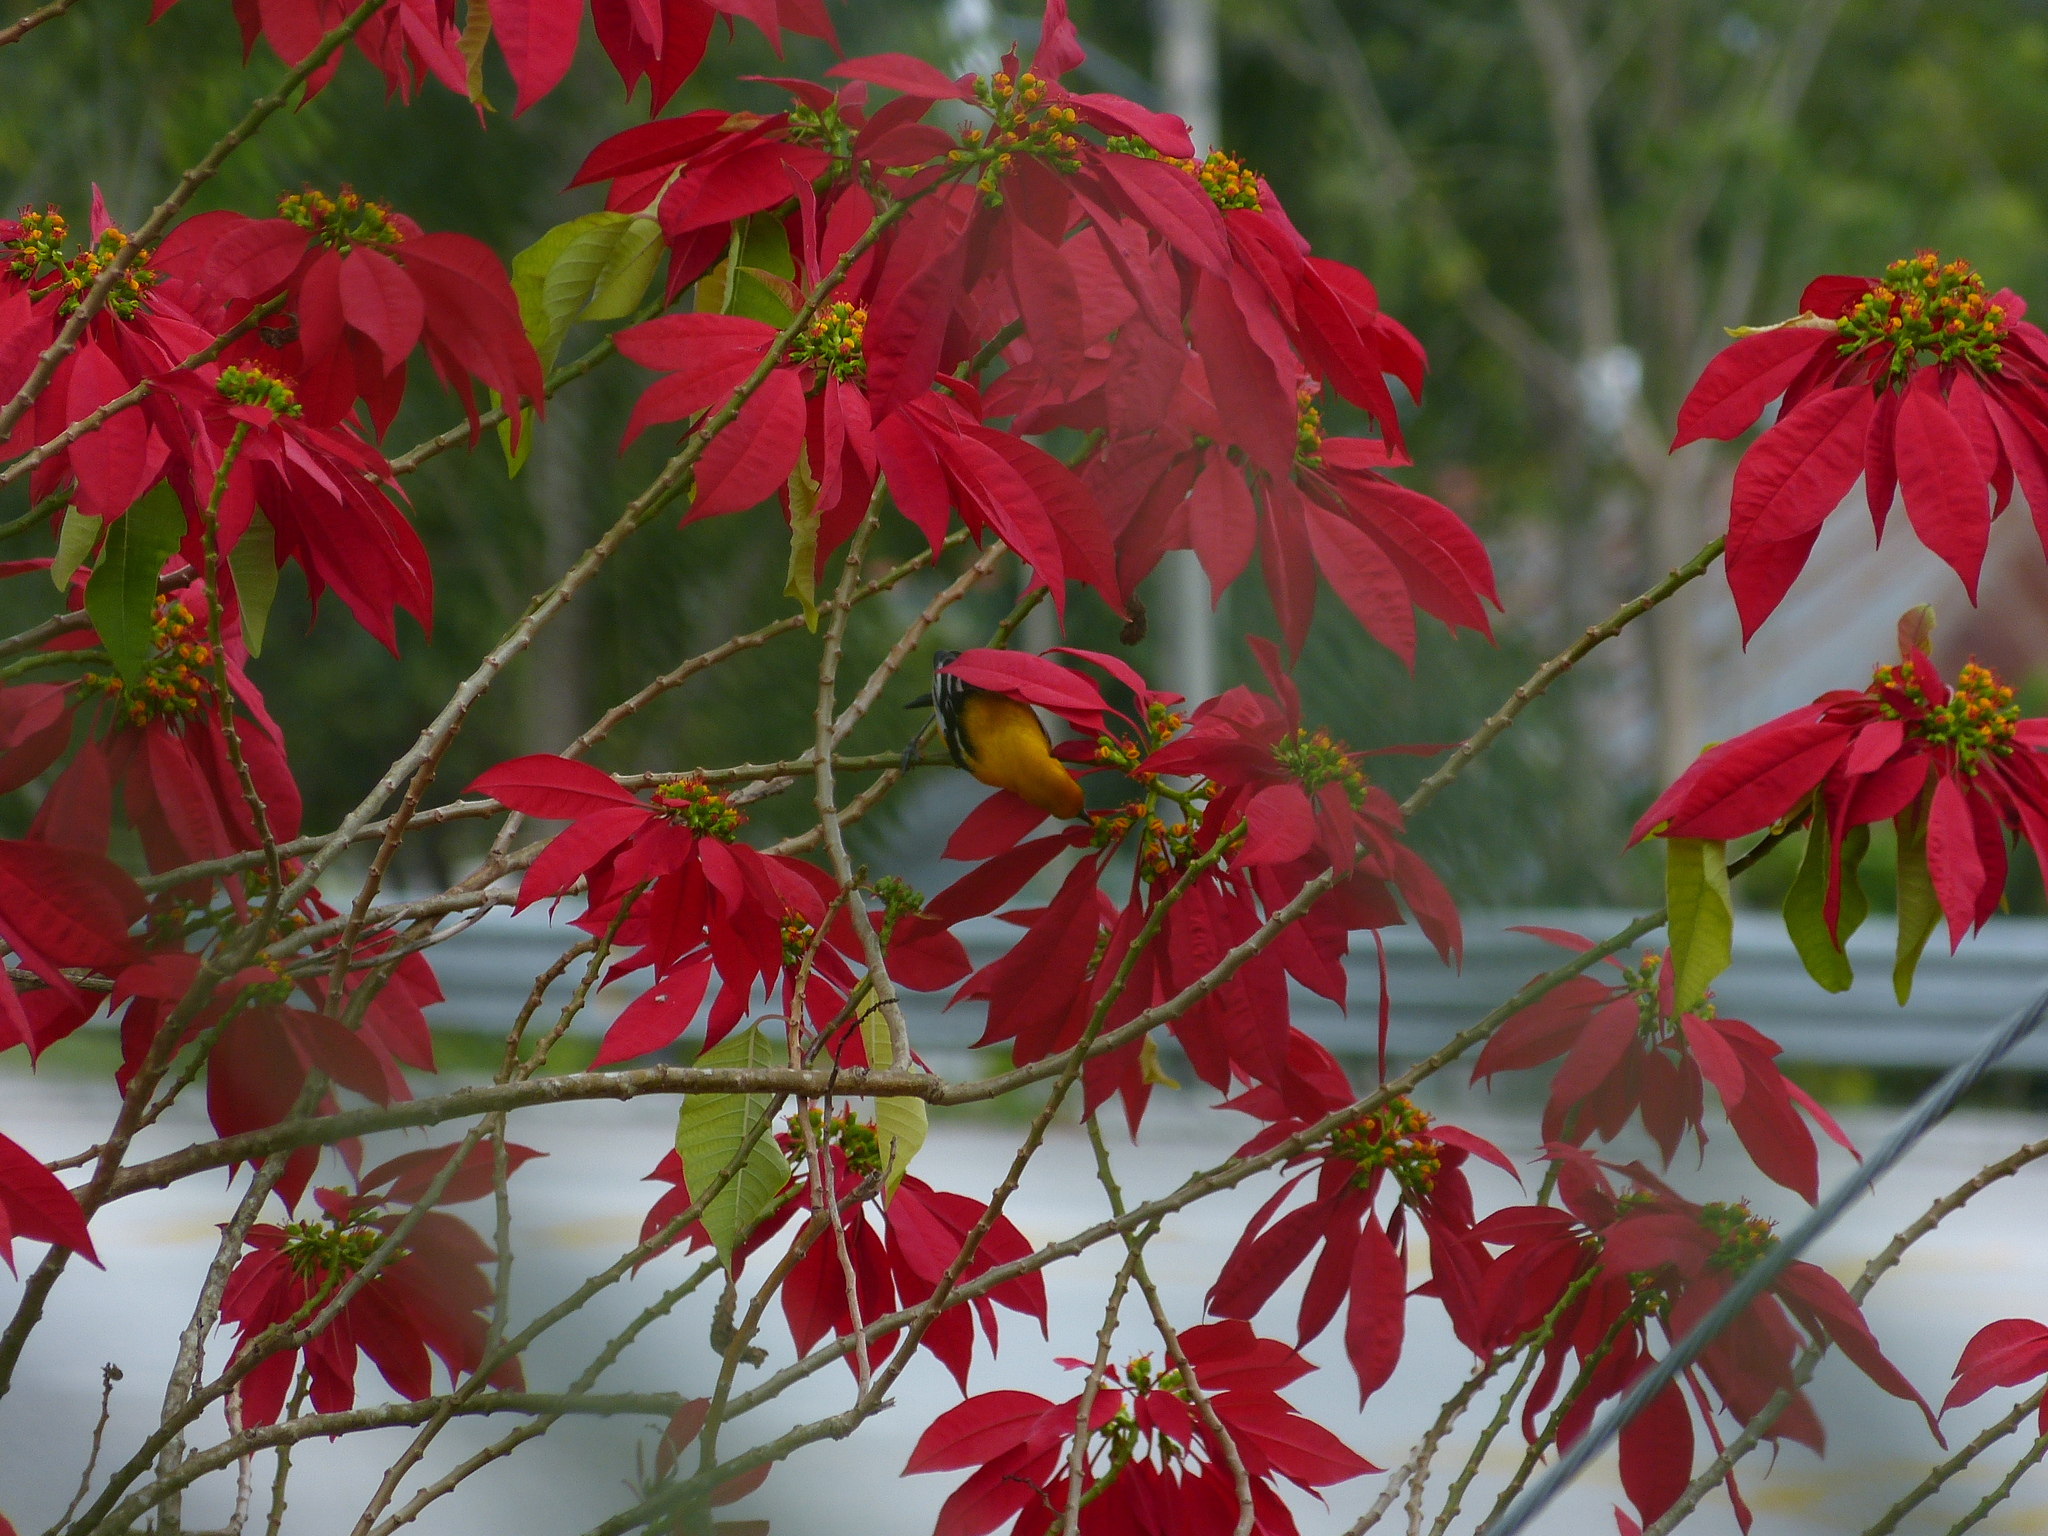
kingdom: Animalia
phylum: Chordata
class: Aves
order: Passeriformes
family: Icteridae
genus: Icterus
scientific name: Icterus auratus
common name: Orange oriole
